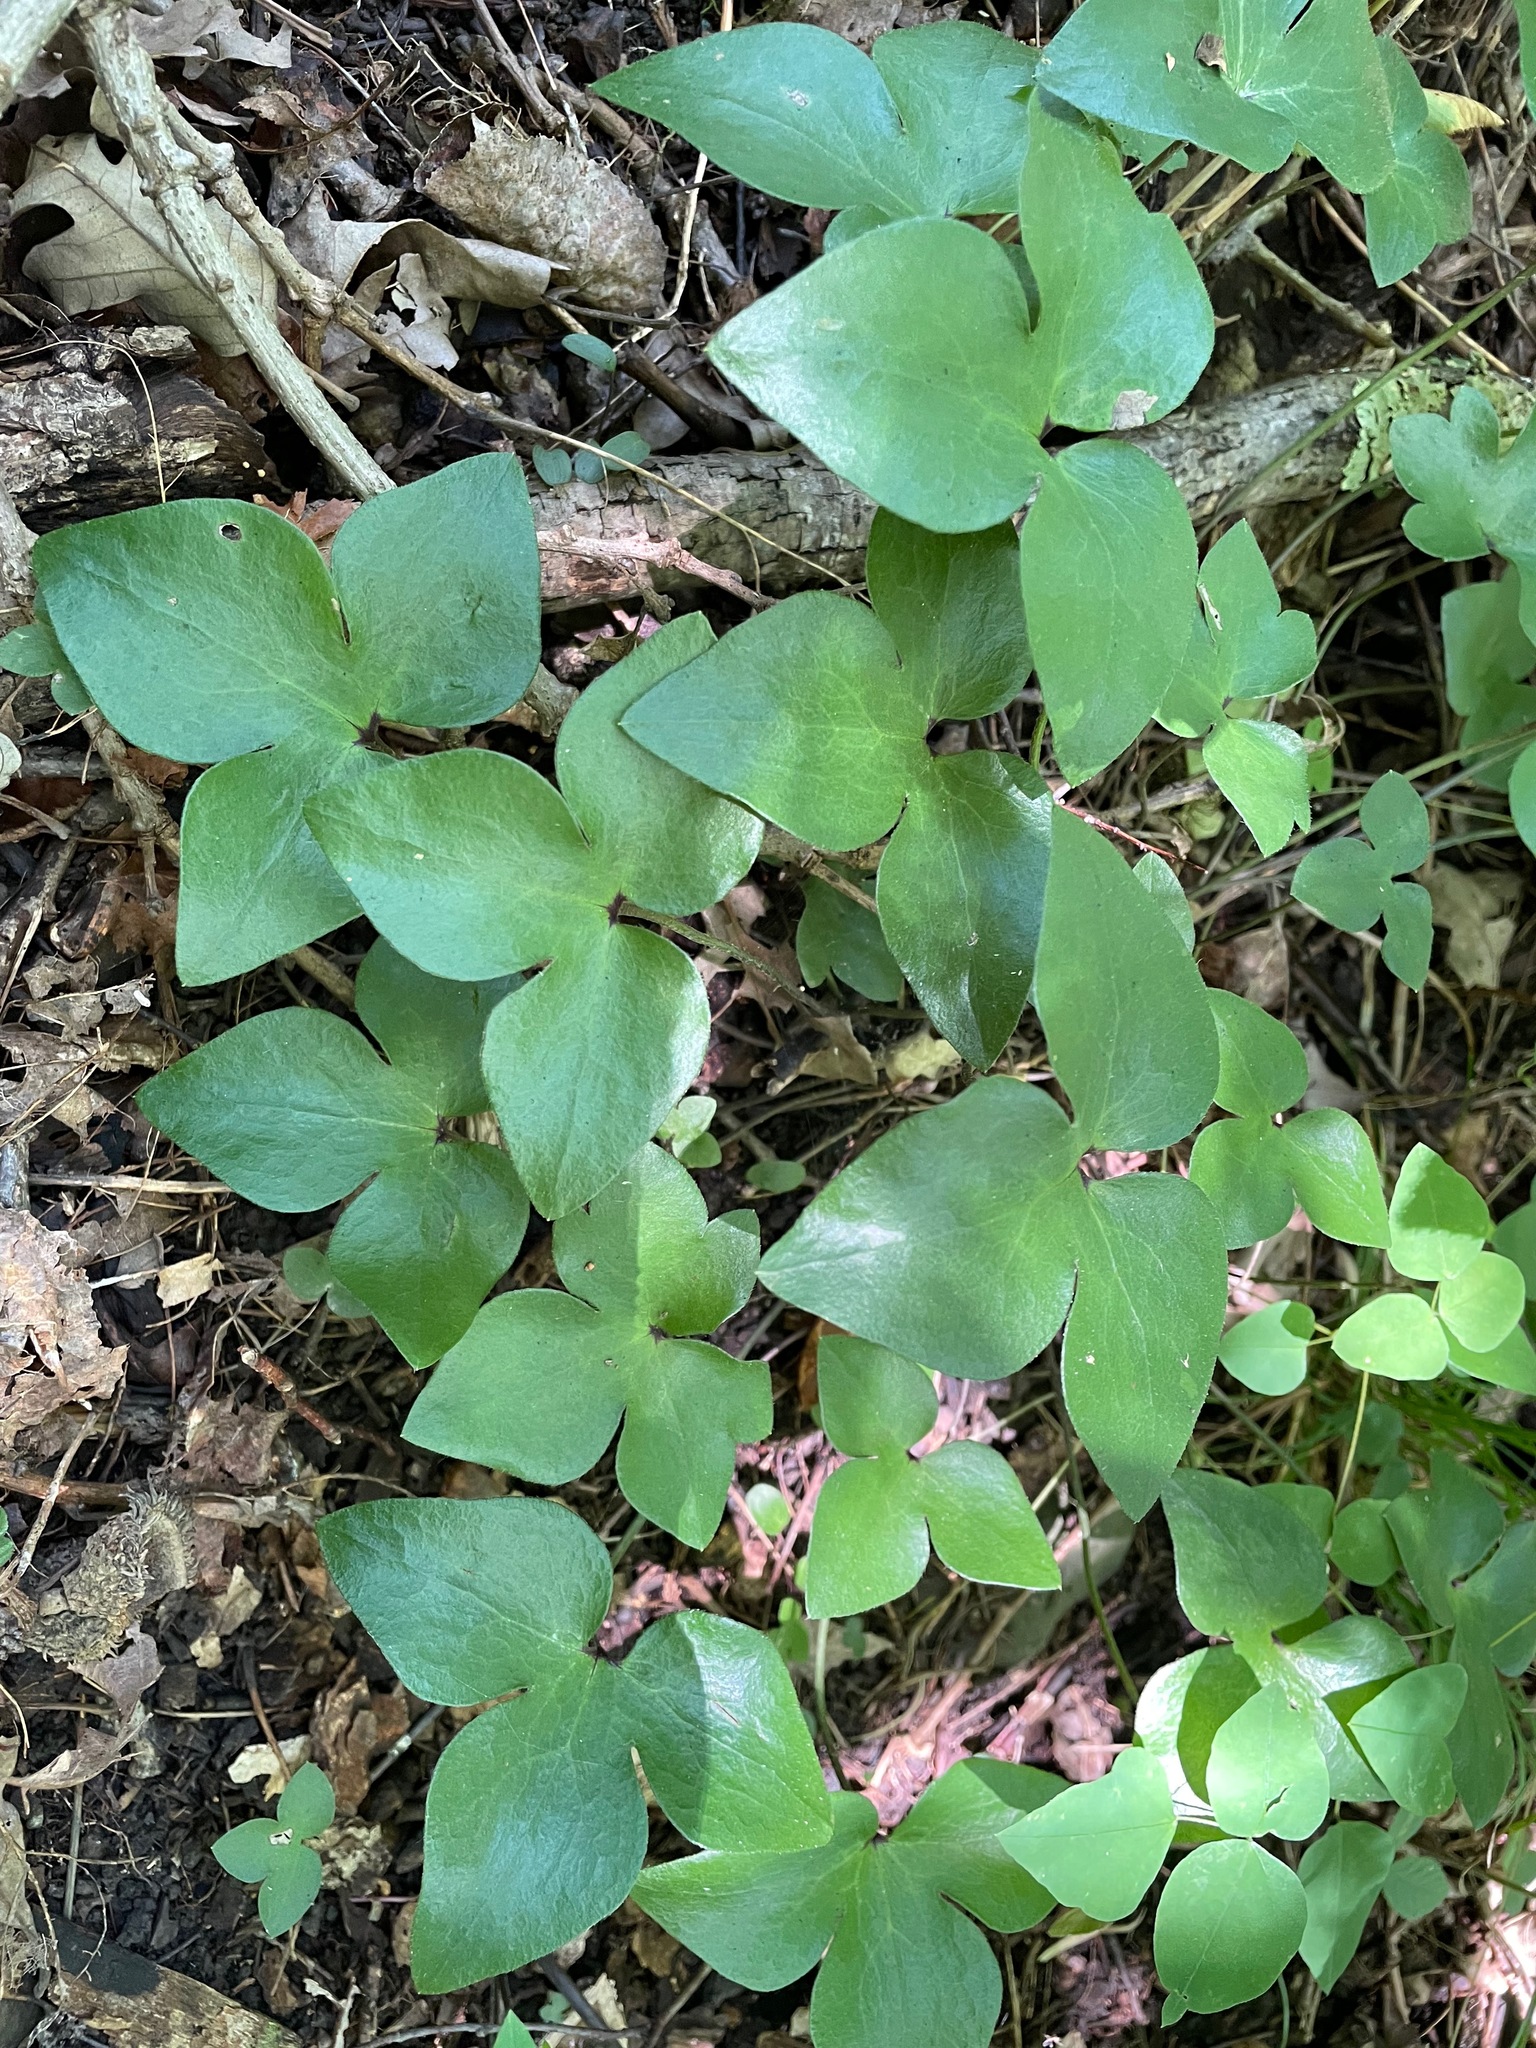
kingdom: Plantae
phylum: Tracheophyta
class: Magnoliopsida
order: Ranunculales
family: Ranunculaceae
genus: Hepatica
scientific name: Hepatica acutiloba
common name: Sharp-lobed hepatica
